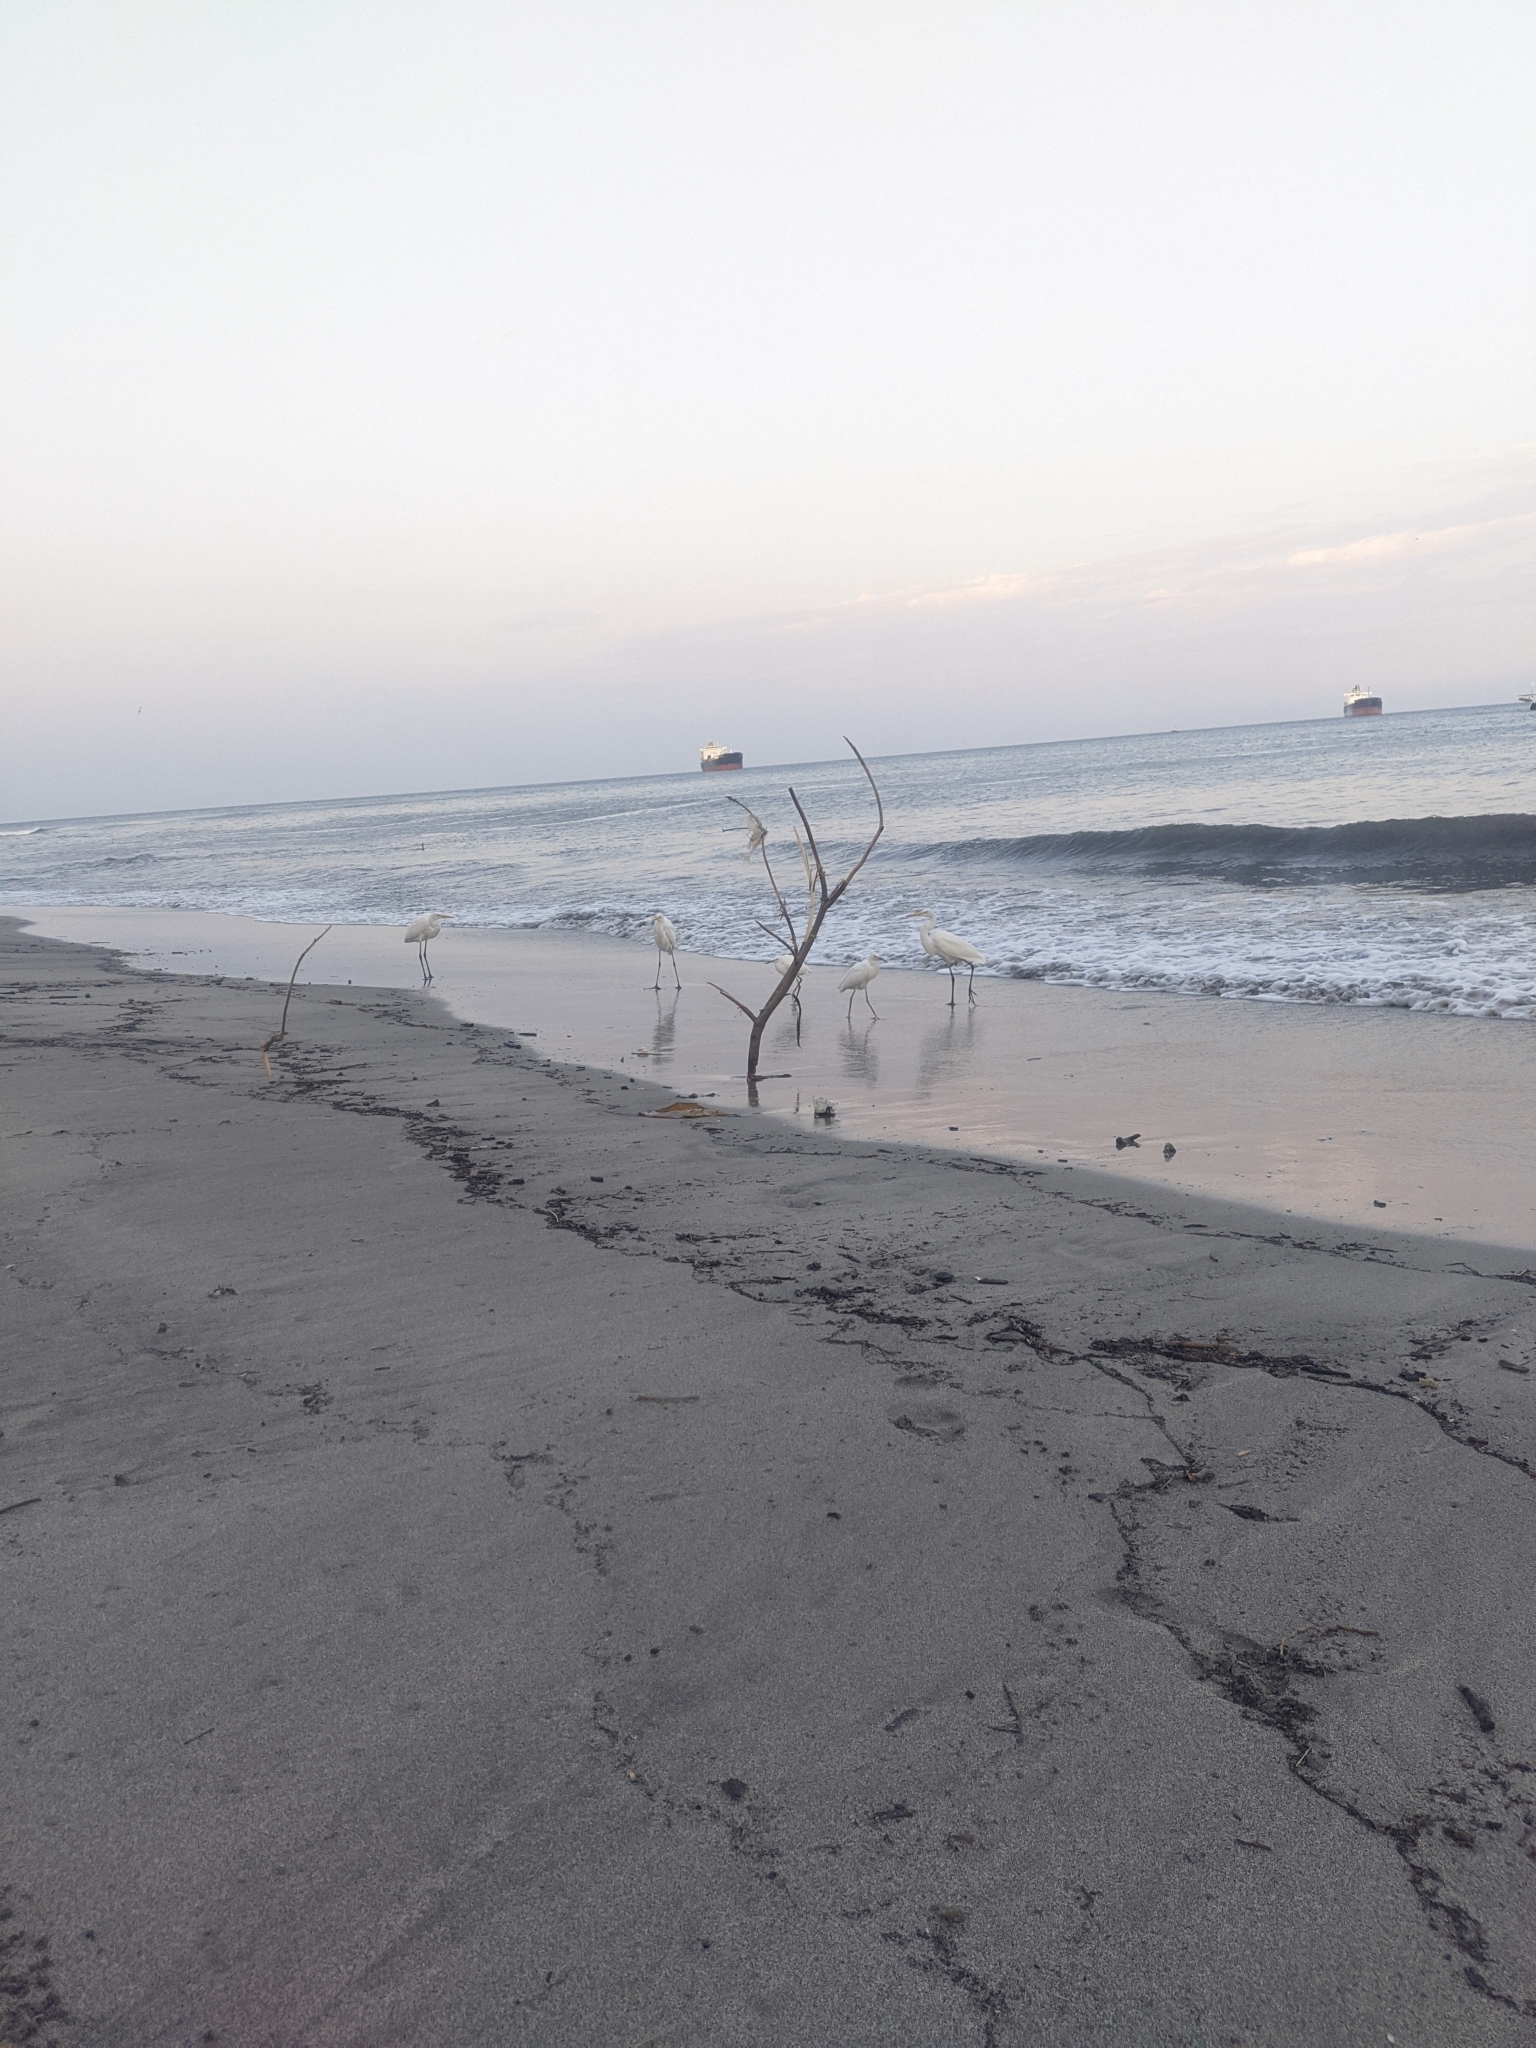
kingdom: Animalia
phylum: Chordata
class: Aves
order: Pelecaniformes
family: Ardeidae
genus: Ardea
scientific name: Ardea alba
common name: Great egret
